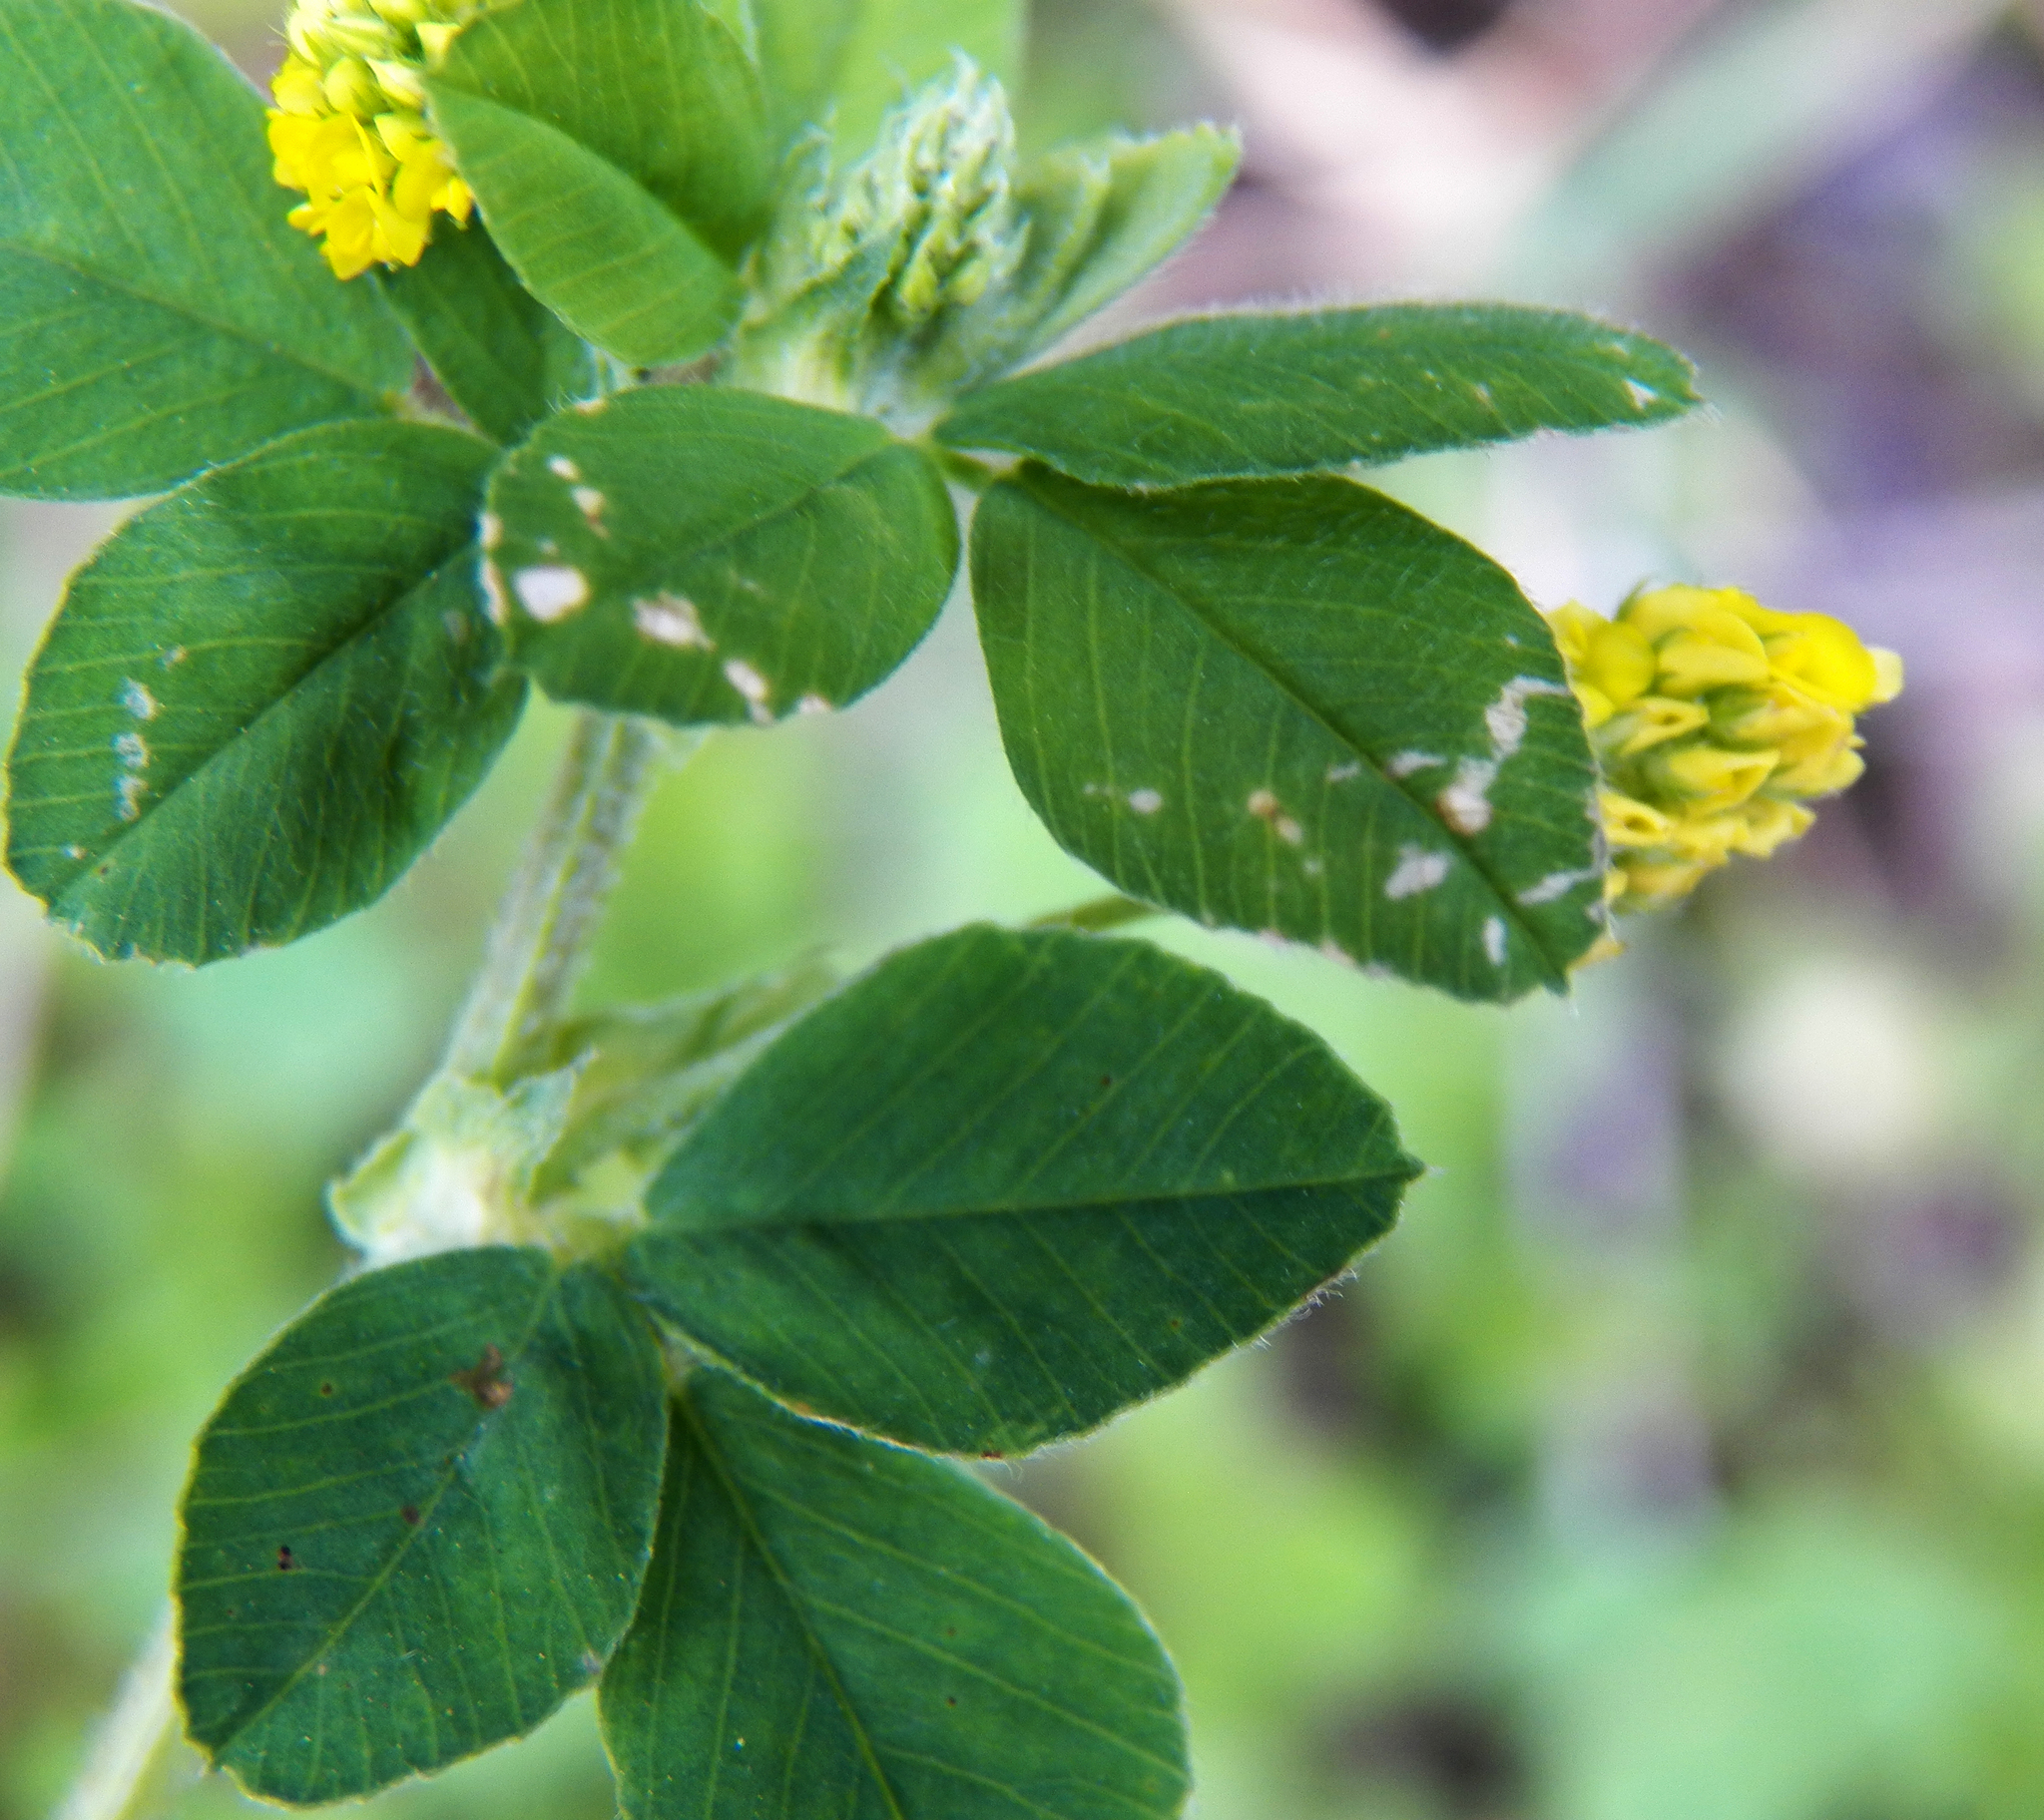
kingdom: Plantae
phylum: Tracheophyta
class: Magnoliopsida
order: Fabales
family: Fabaceae
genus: Medicago
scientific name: Medicago lupulina
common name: Black medick
